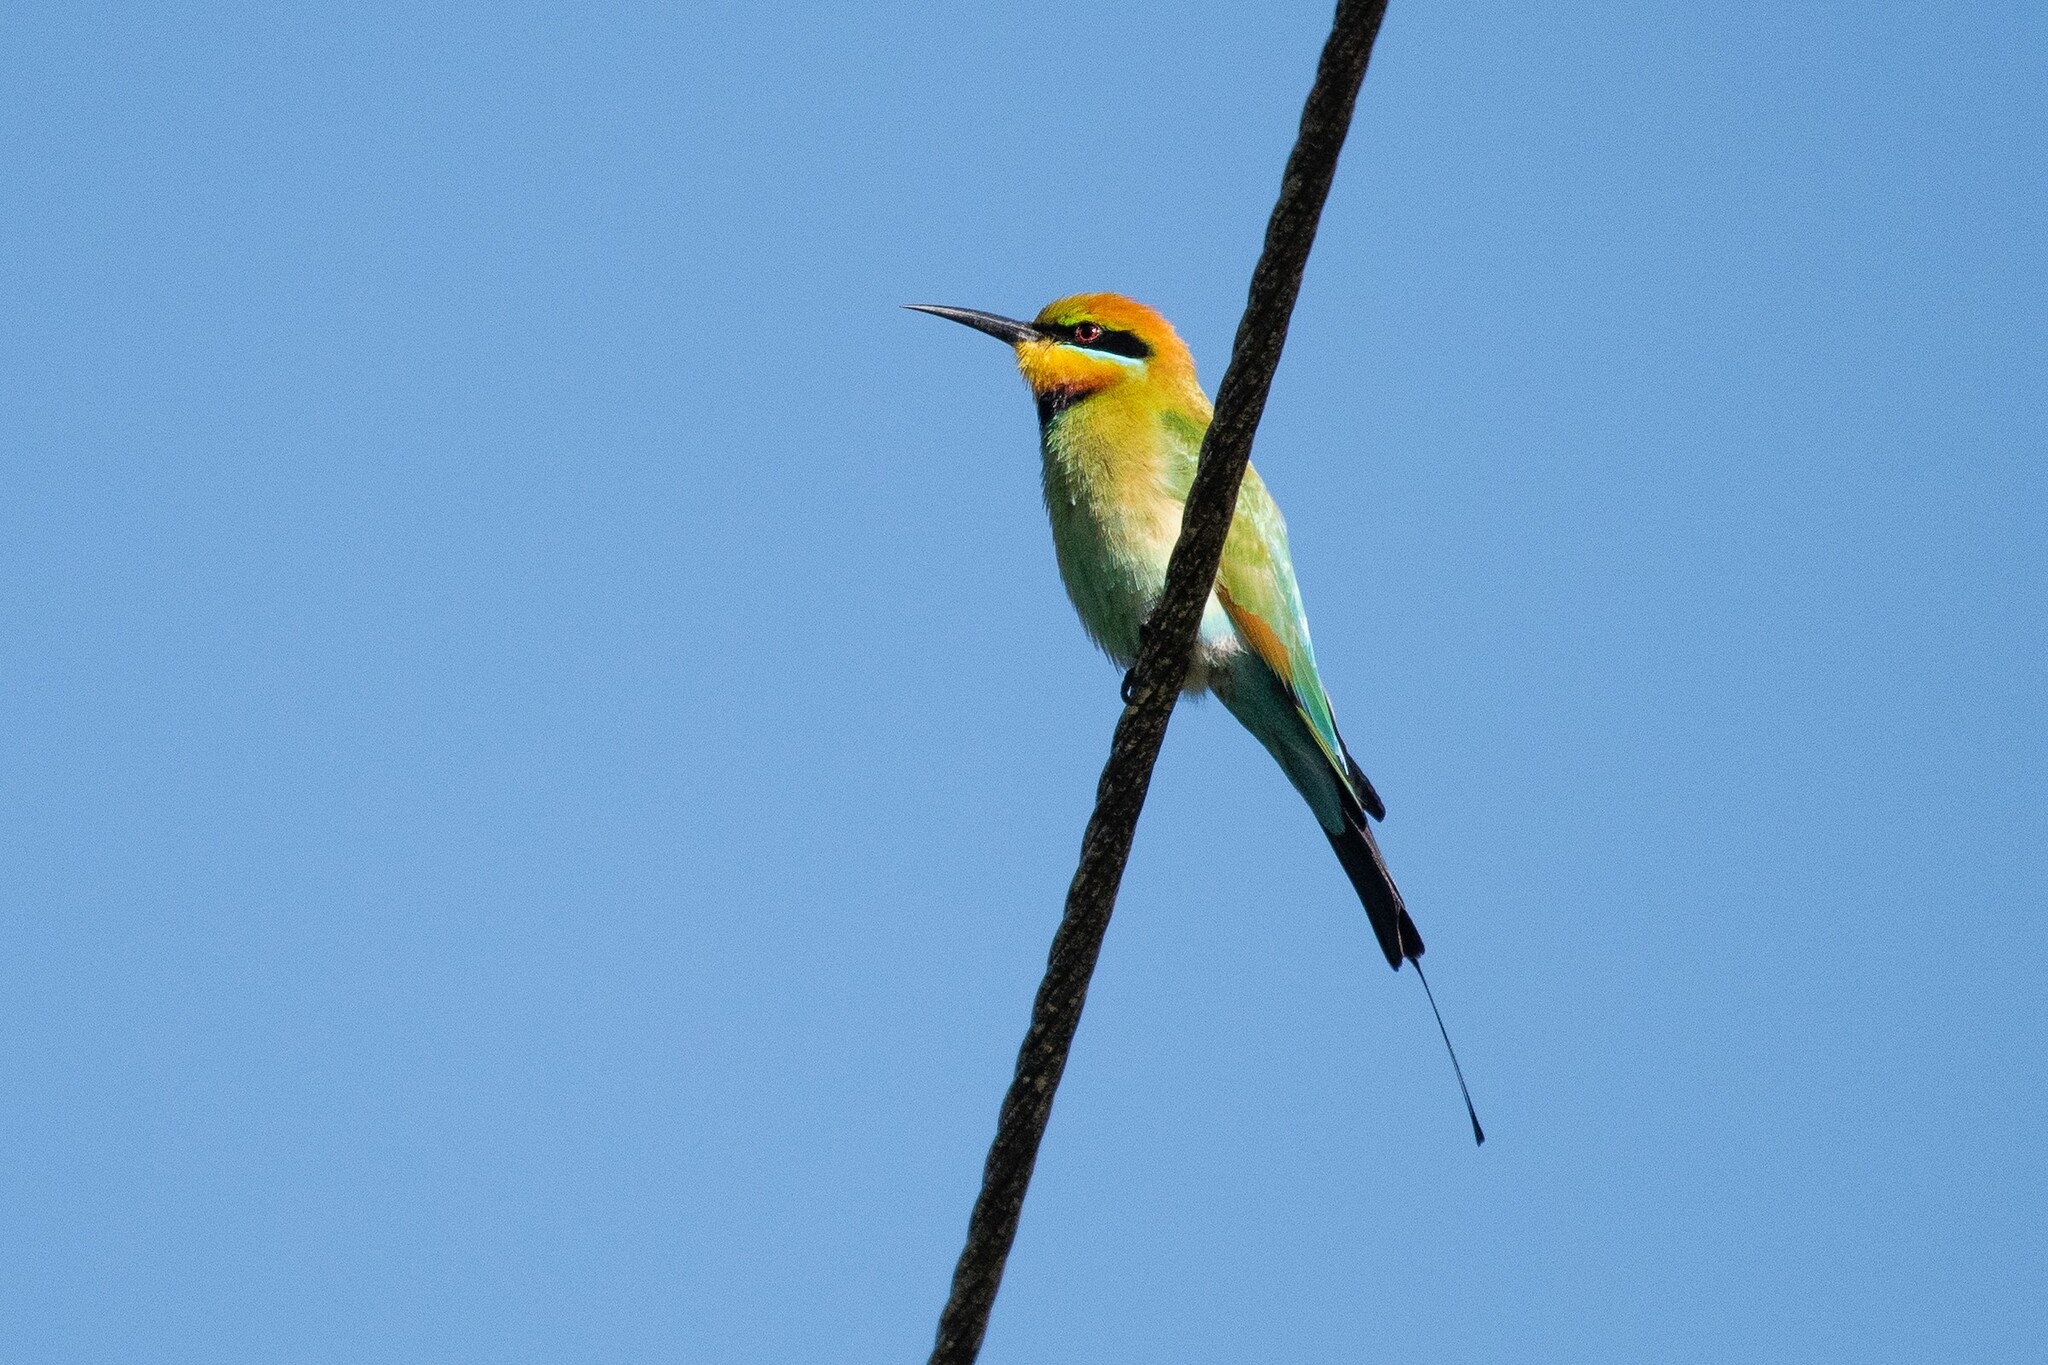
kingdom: Animalia
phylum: Chordata
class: Aves
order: Coraciiformes
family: Meropidae
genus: Merops
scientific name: Merops ornatus
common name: Rainbow bee-eater
